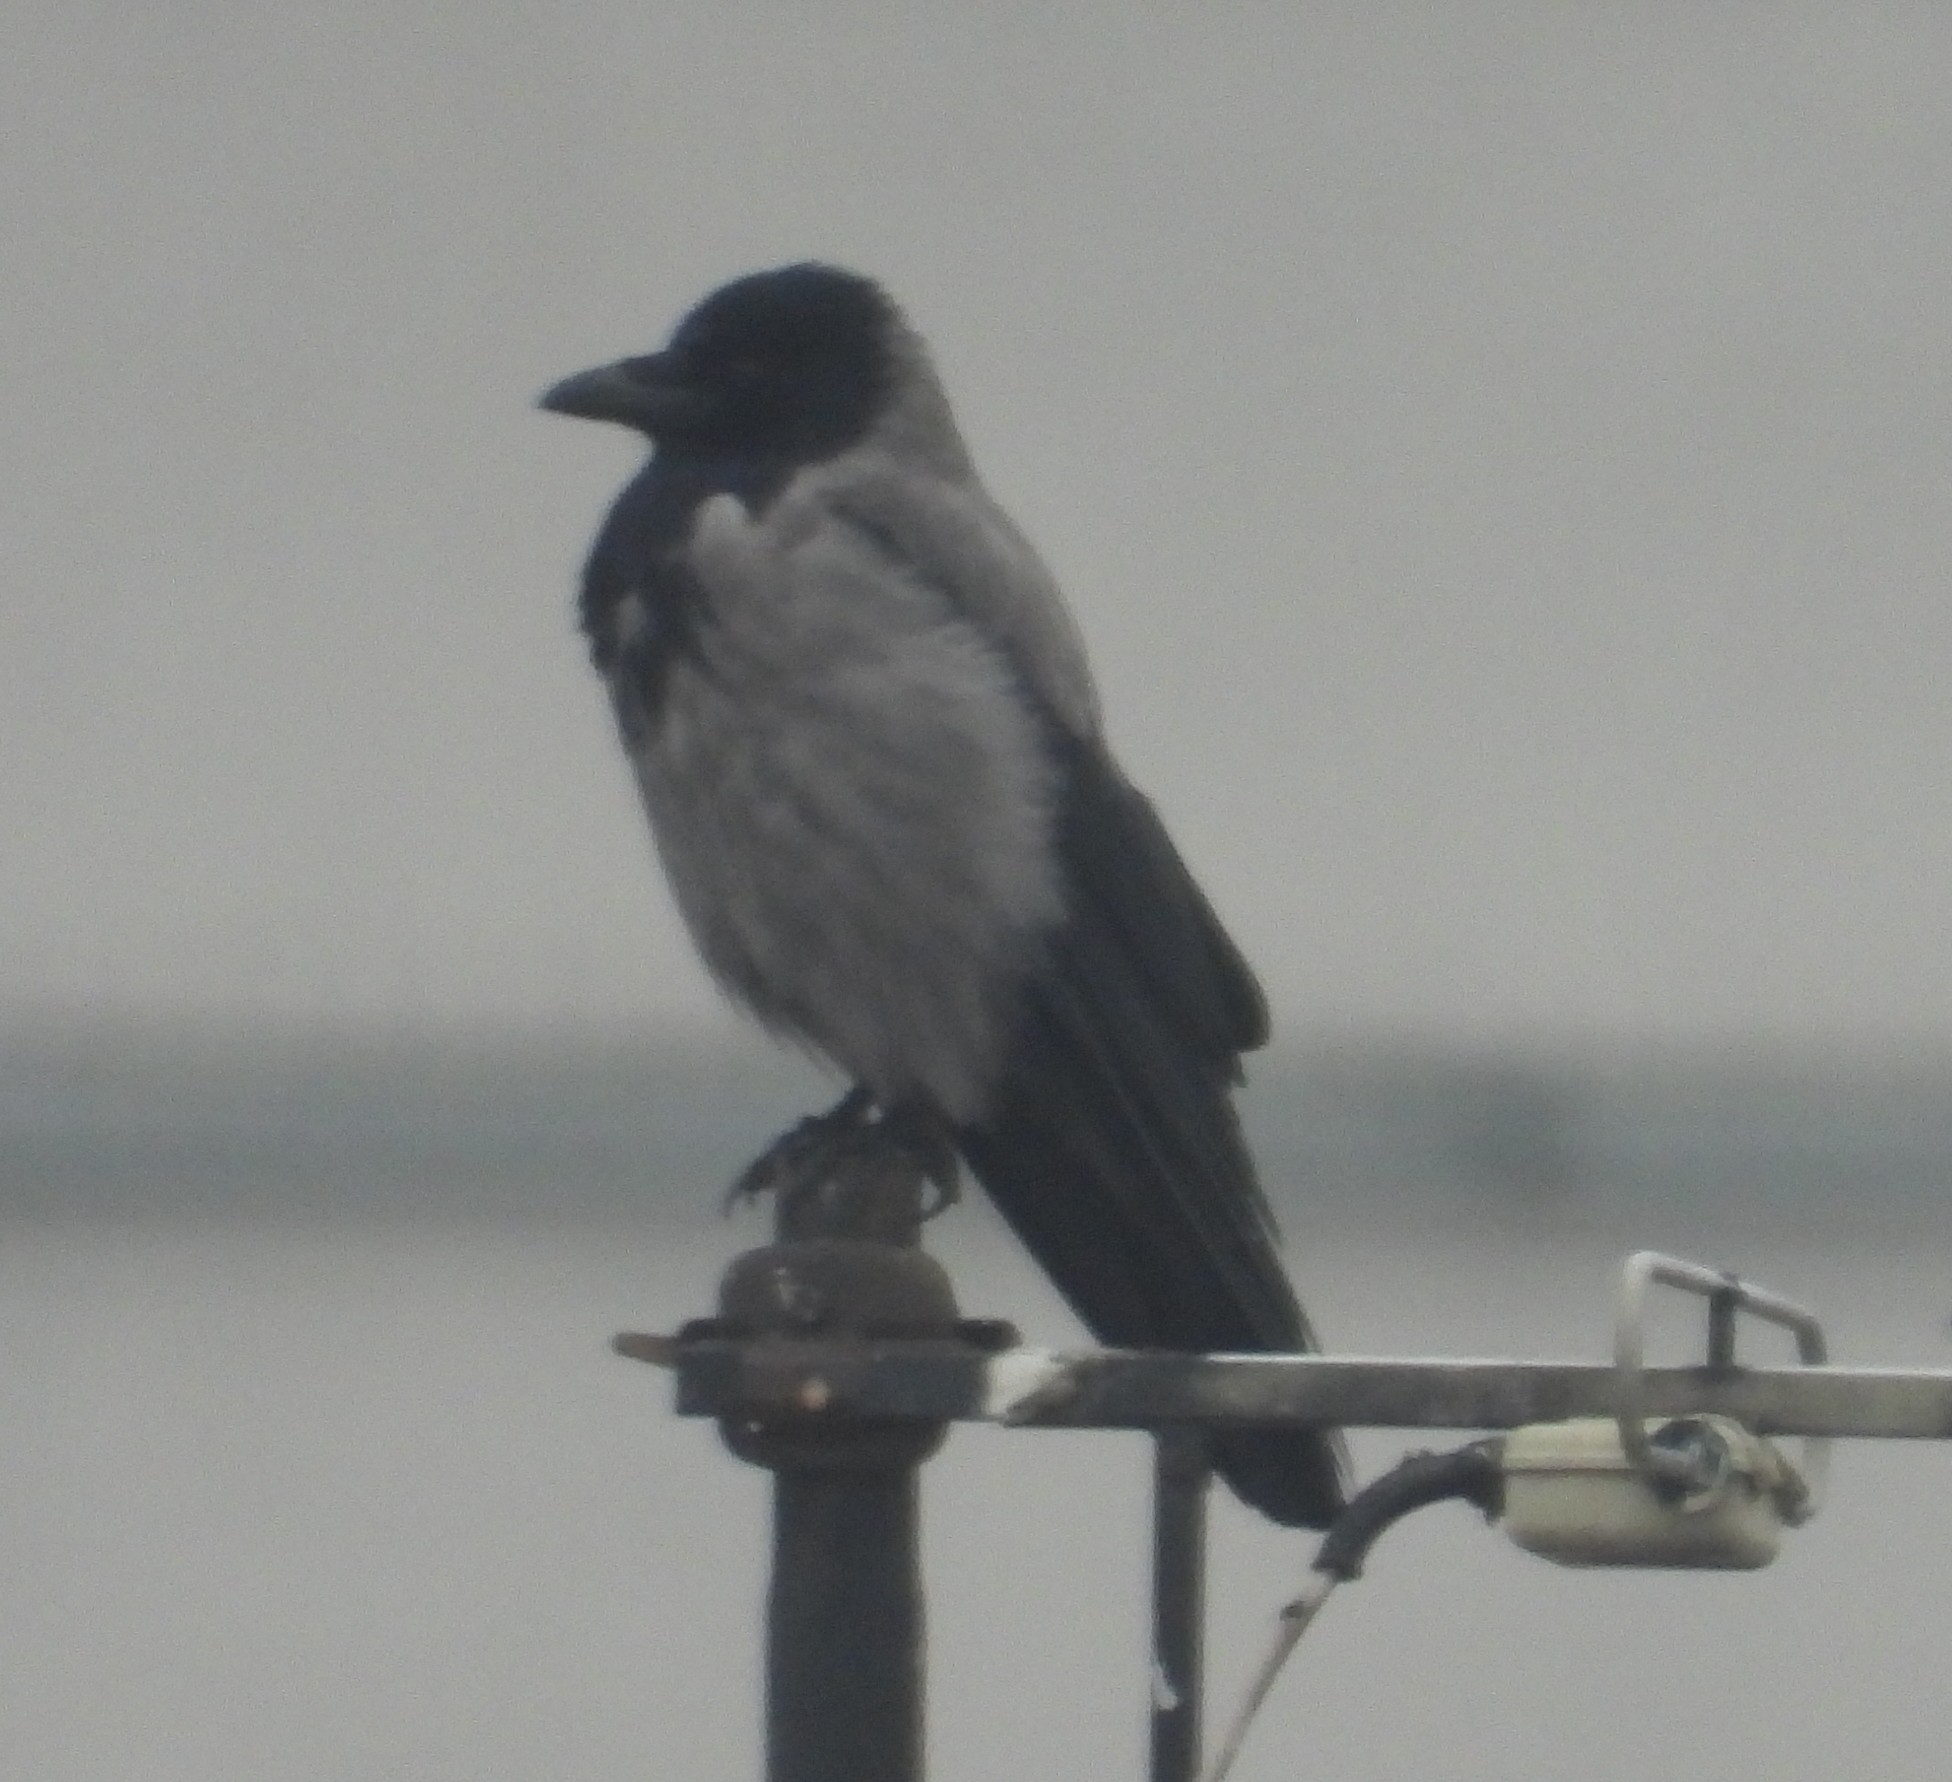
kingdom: Animalia
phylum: Chordata
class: Aves
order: Passeriformes
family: Corvidae
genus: Corvus
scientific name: Corvus cornix
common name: Hooded crow
